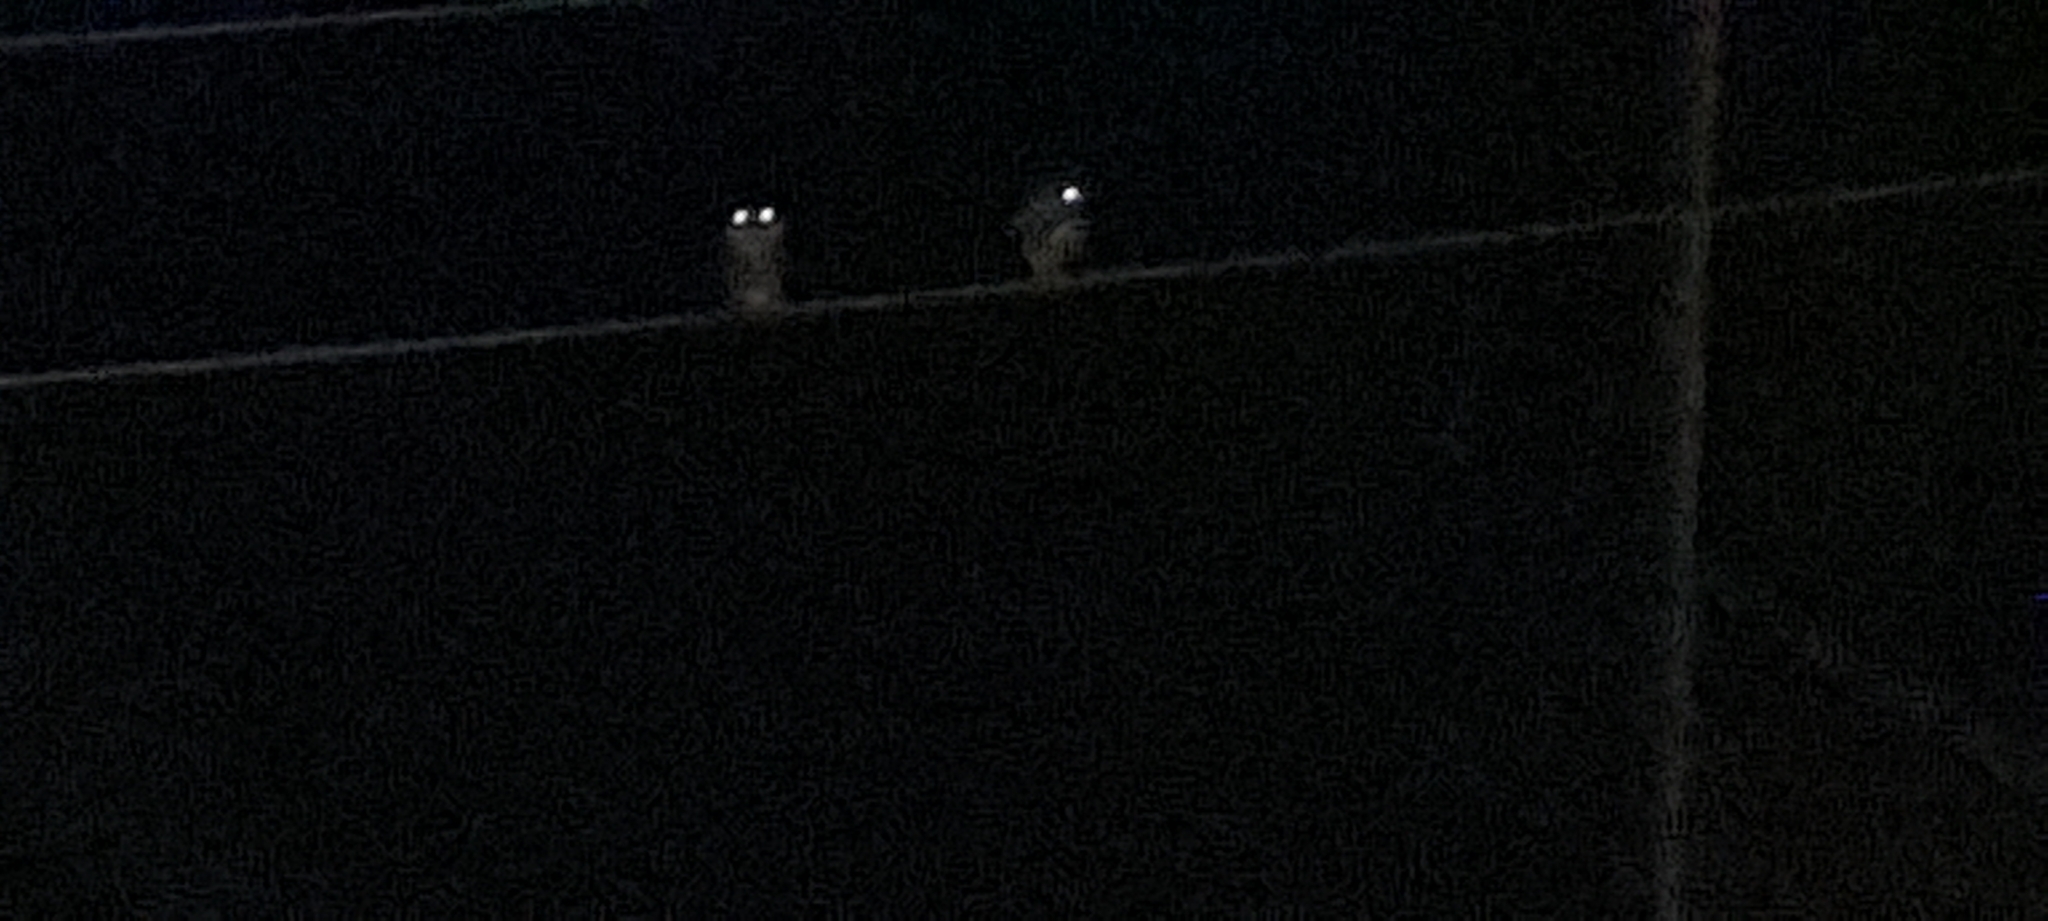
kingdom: Animalia
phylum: Chordata
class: Aves
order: Strigiformes
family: Strigidae
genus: Athene
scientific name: Athene brama
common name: Spotted owlet
